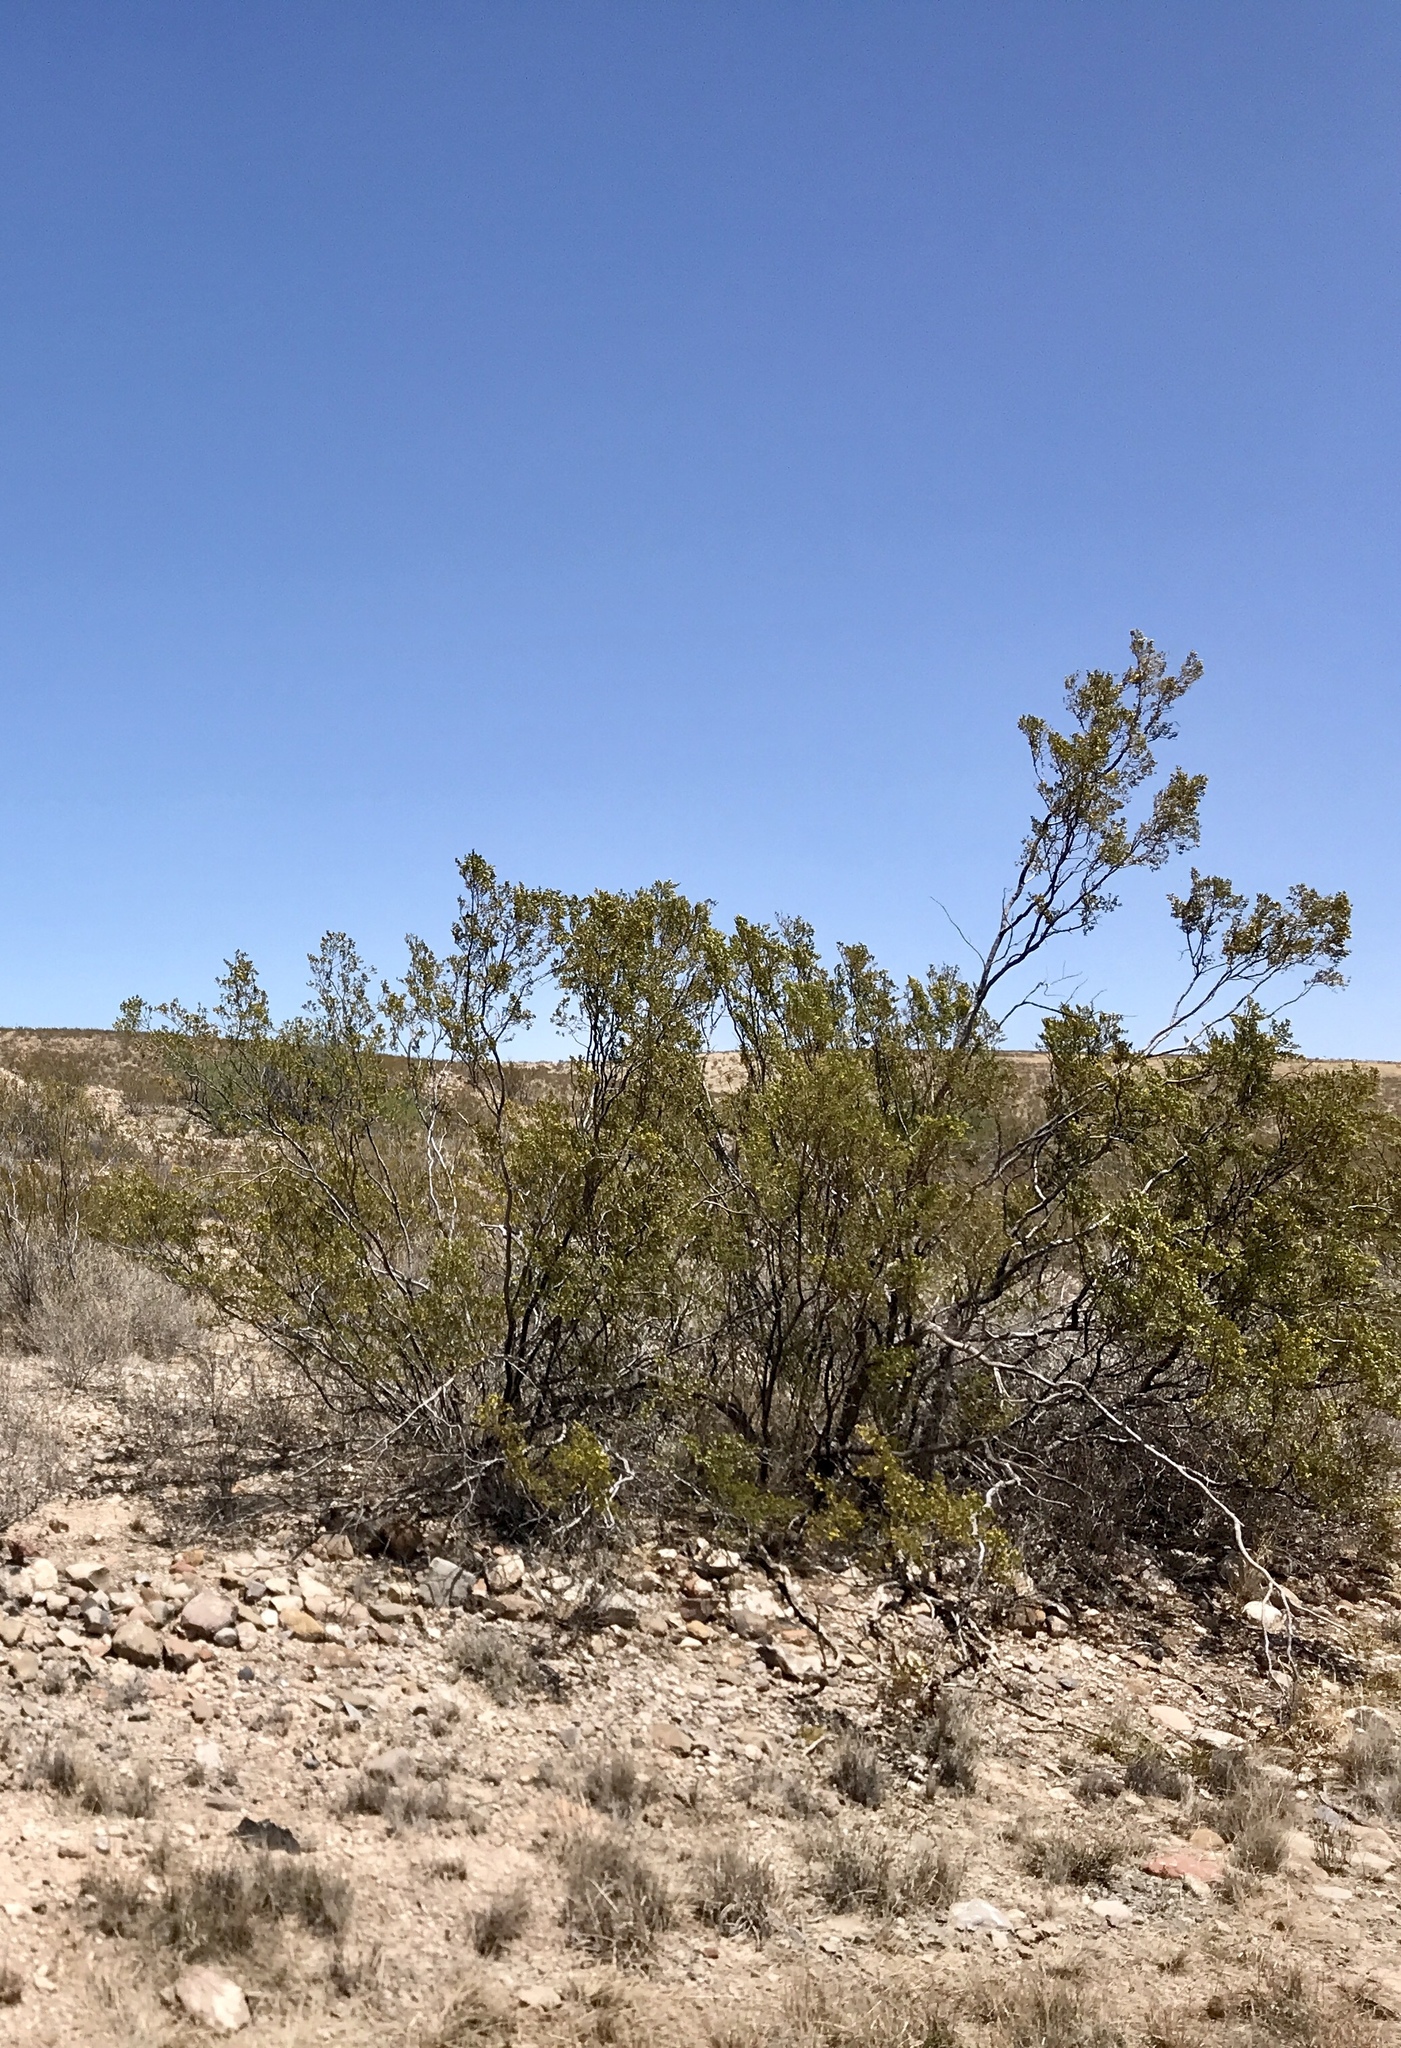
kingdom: Plantae
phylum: Tracheophyta
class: Magnoliopsida
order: Zygophyllales
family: Zygophyllaceae
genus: Larrea
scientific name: Larrea tridentata
